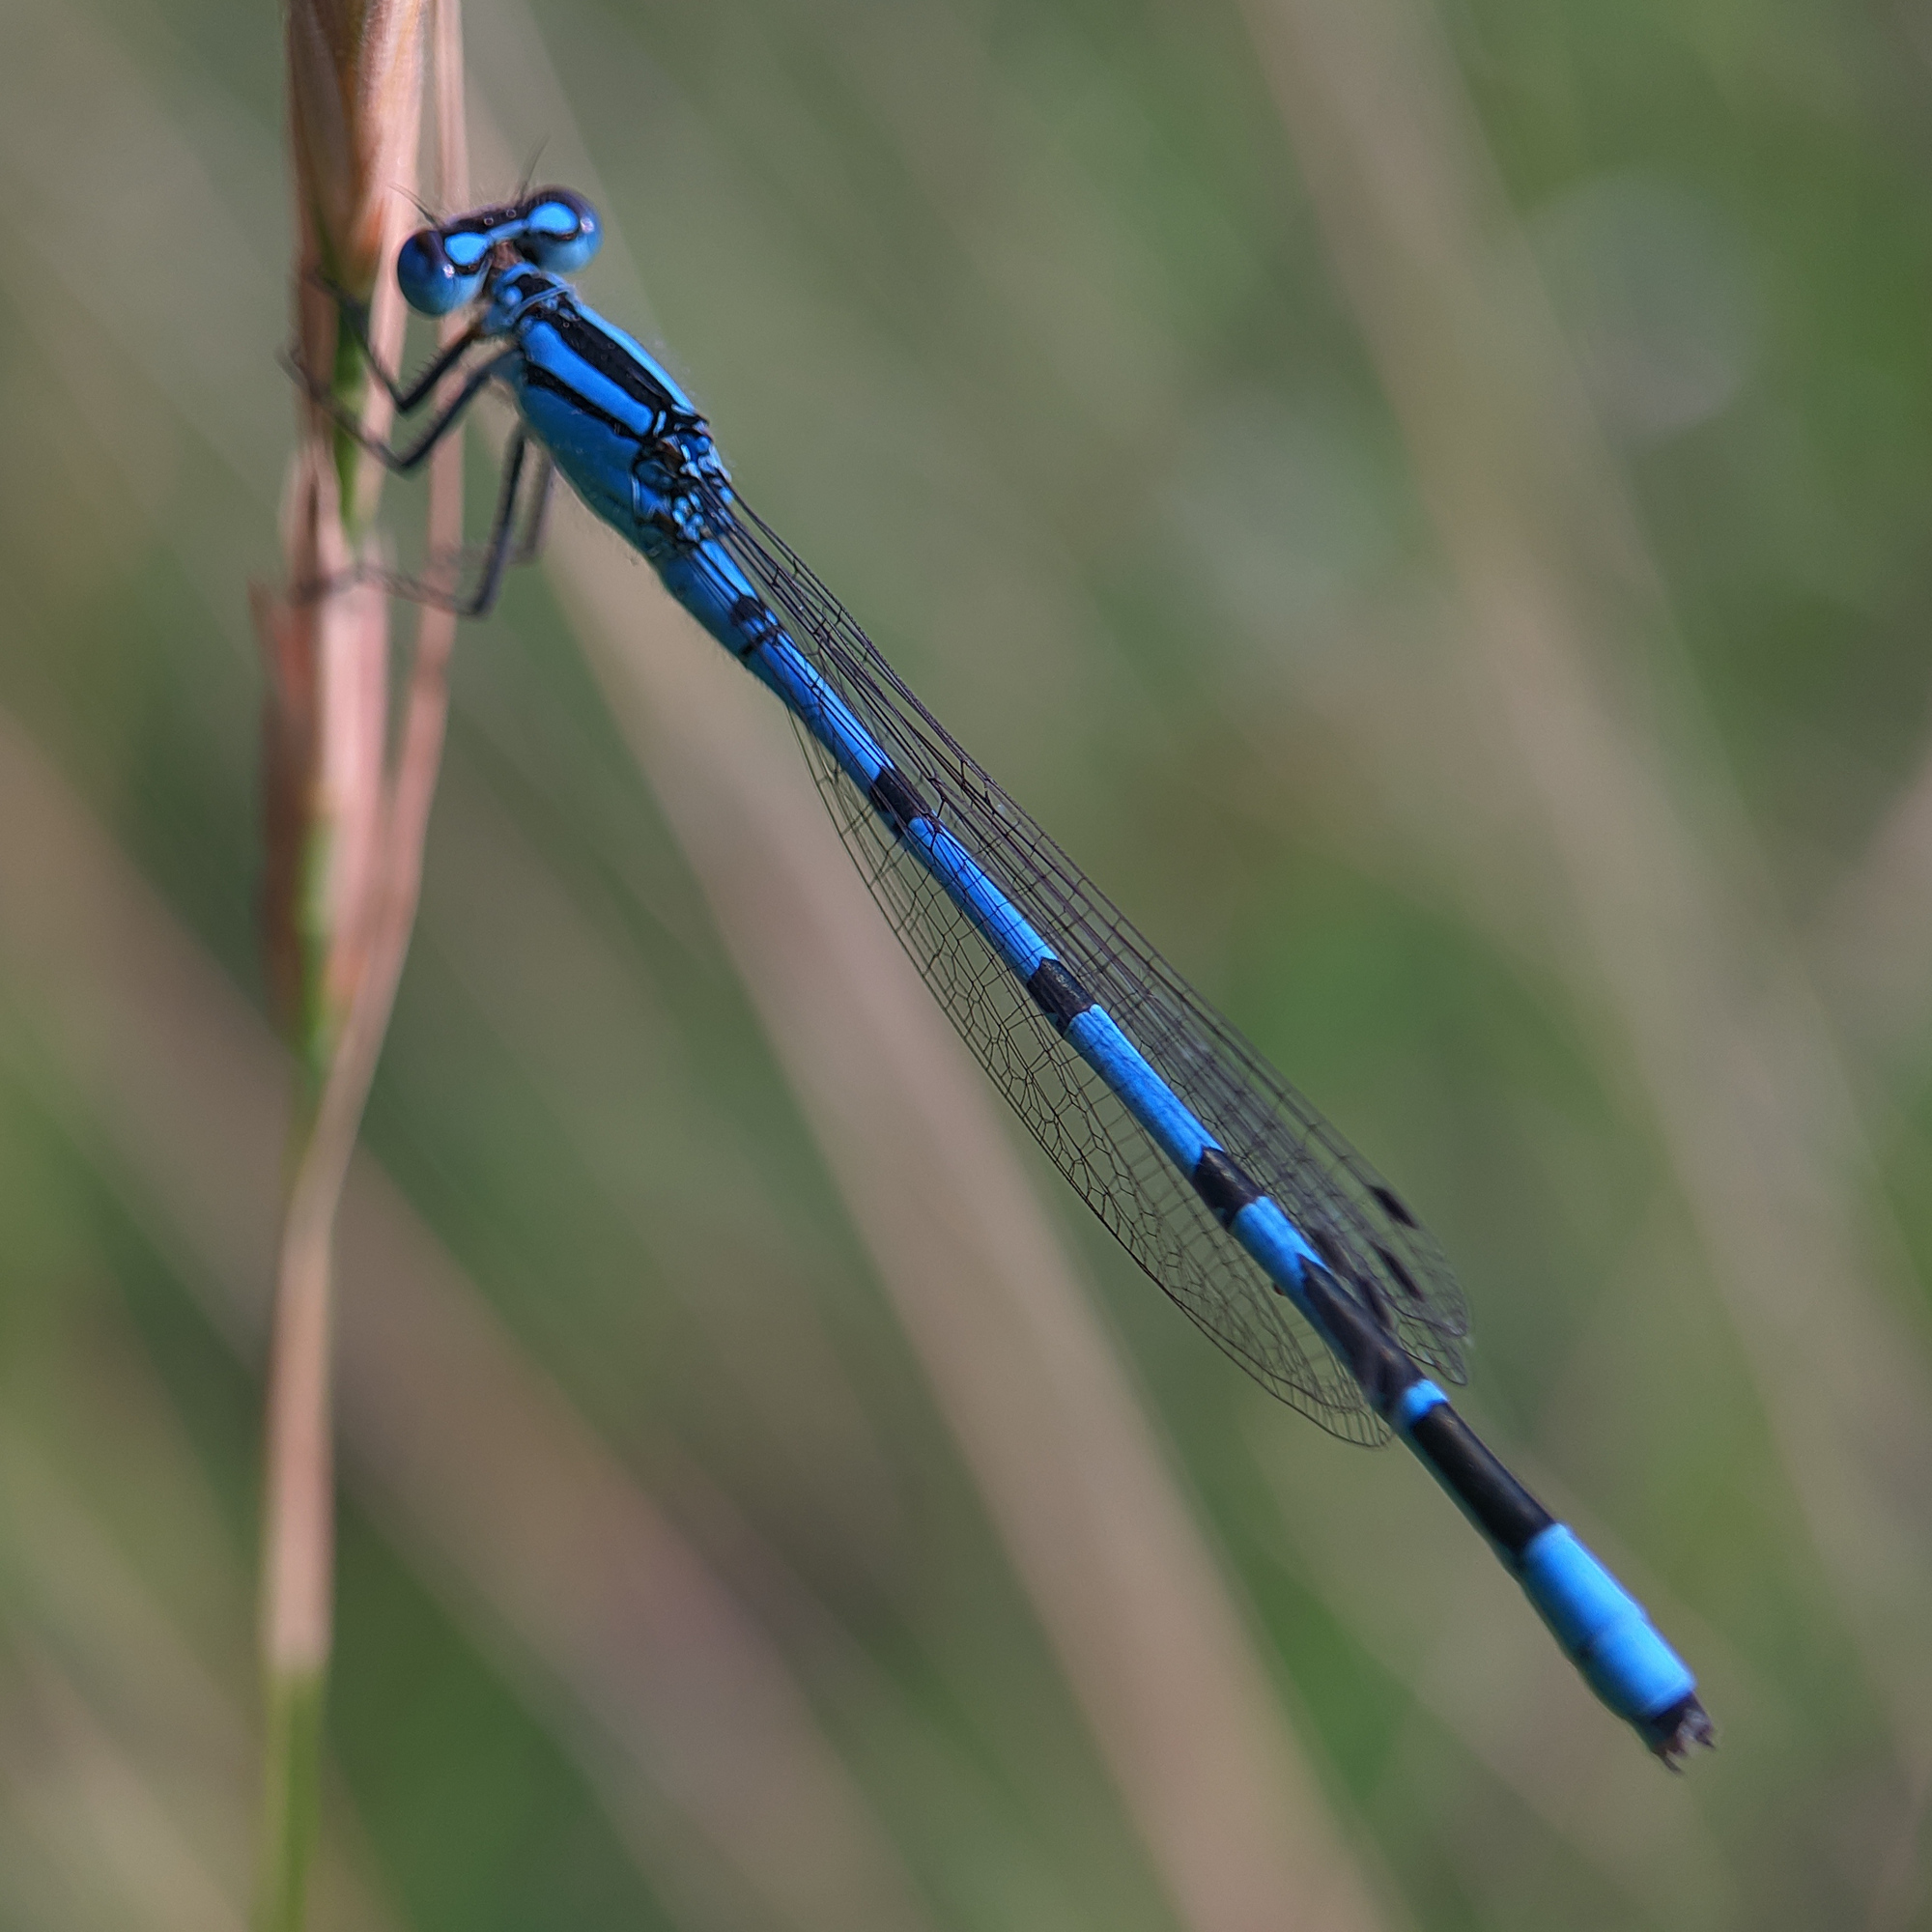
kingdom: Animalia
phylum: Arthropoda
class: Insecta
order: Odonata
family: Coenagrionidae
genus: Enallagma
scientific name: Enallagma cyathigerum
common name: Common blue damselfly
